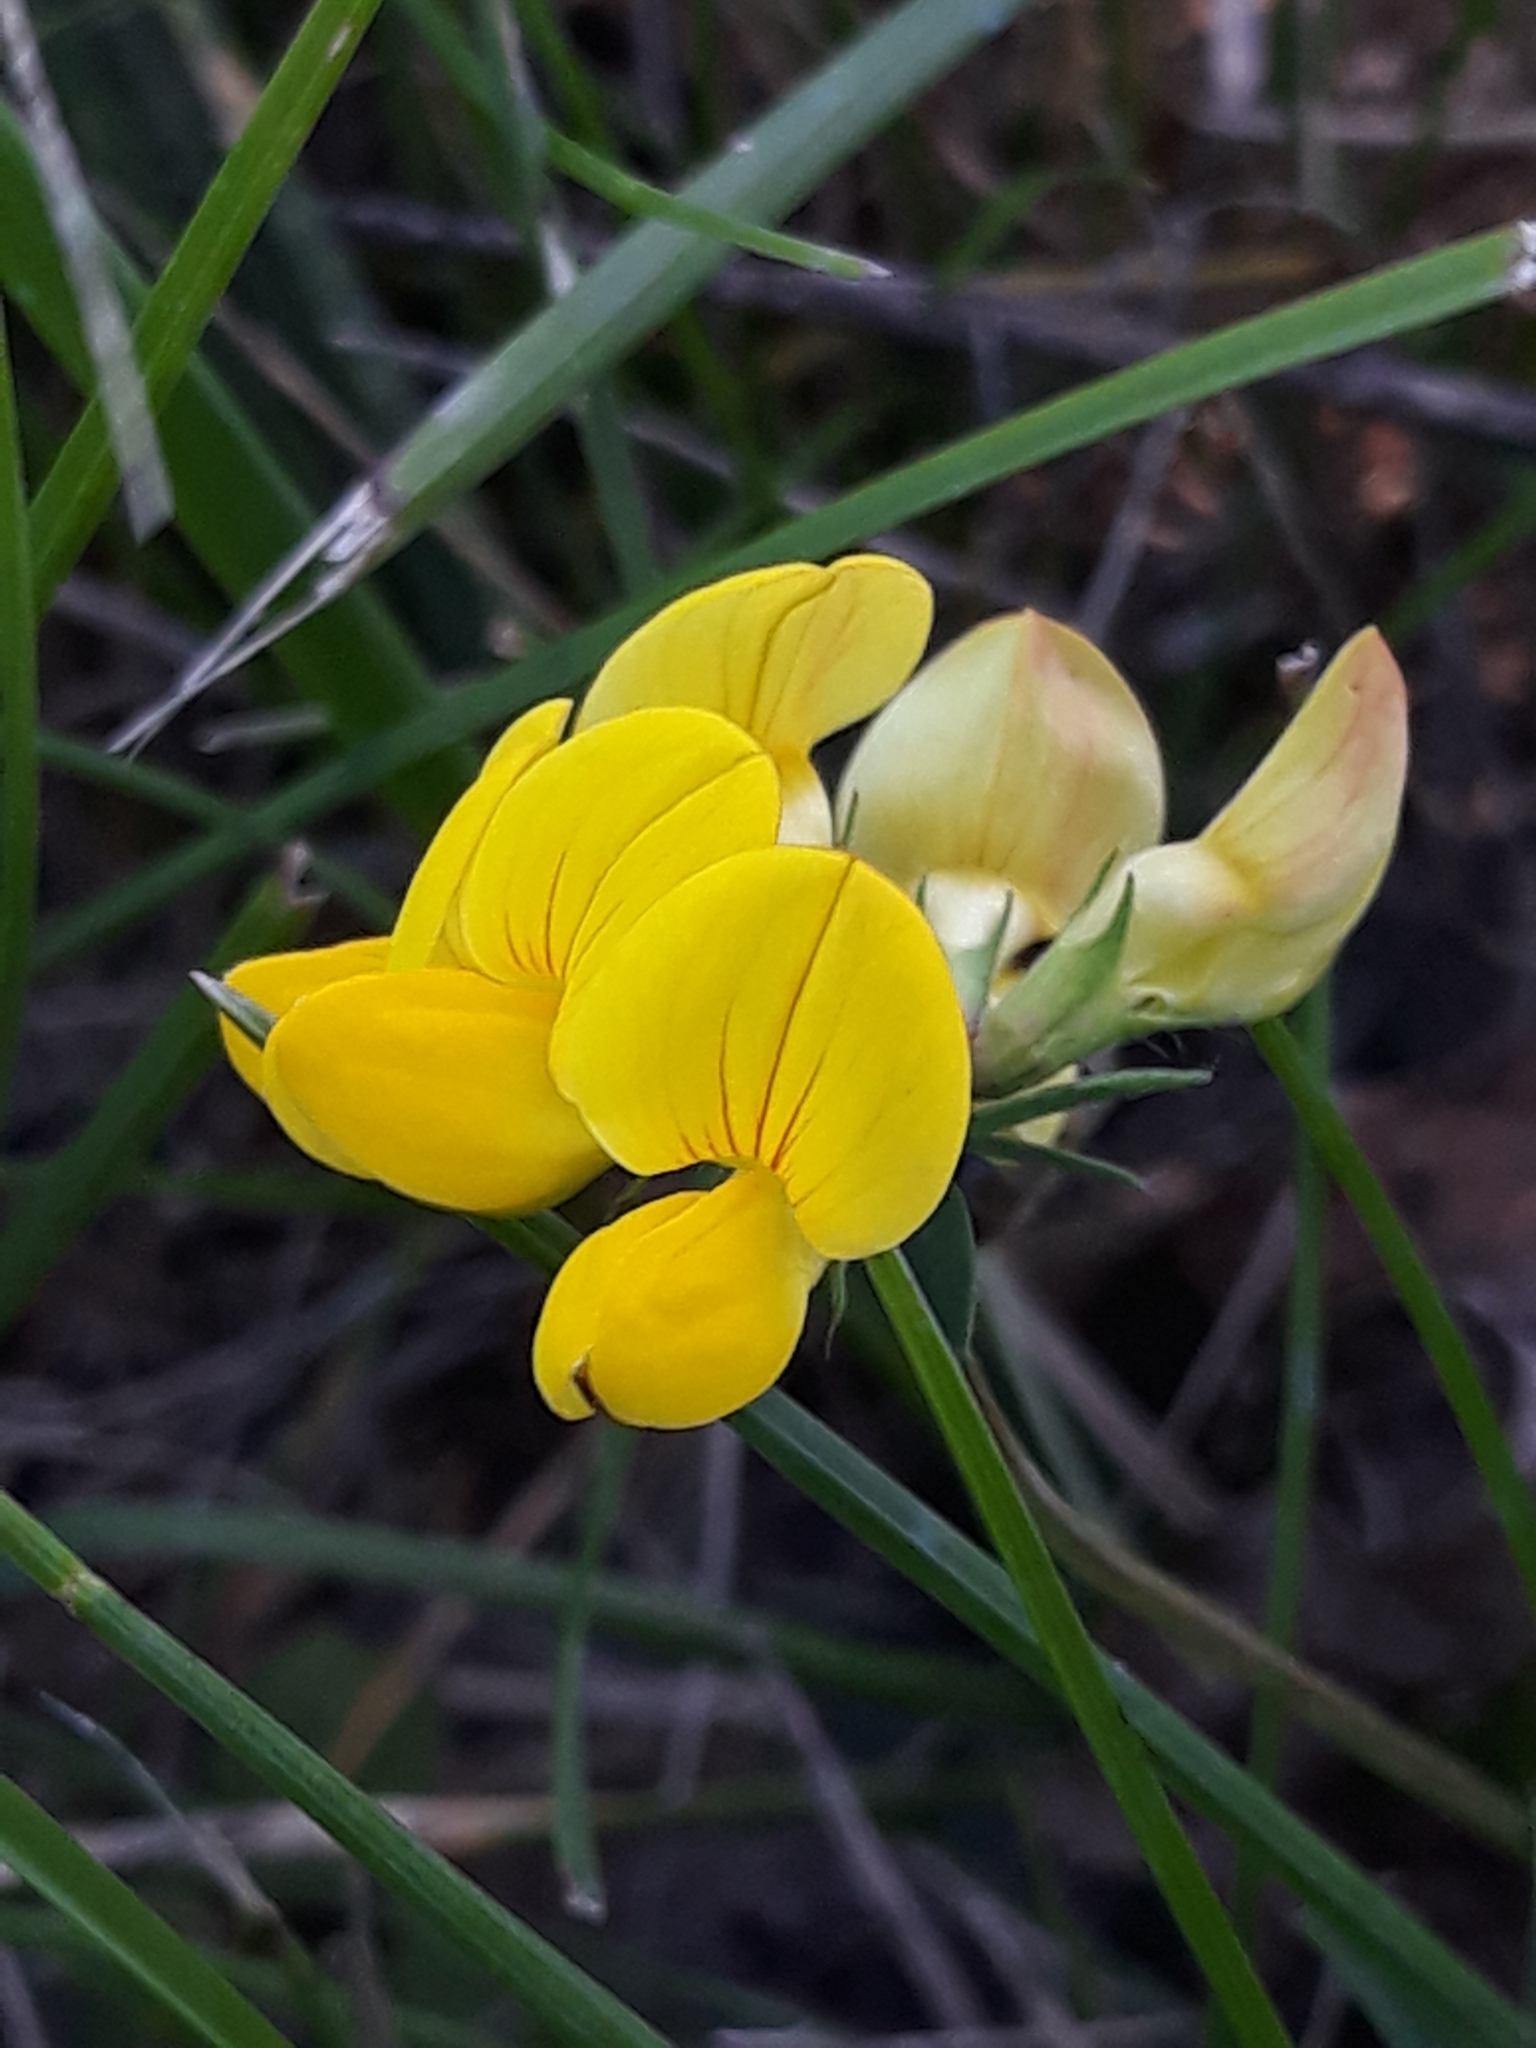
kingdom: Plantae
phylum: Tracheophyta
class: Magnoliopsida
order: Fabales
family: Fabaceae
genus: Lotus
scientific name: Lotus corniculatus
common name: Common bird's-foot-trefoil
